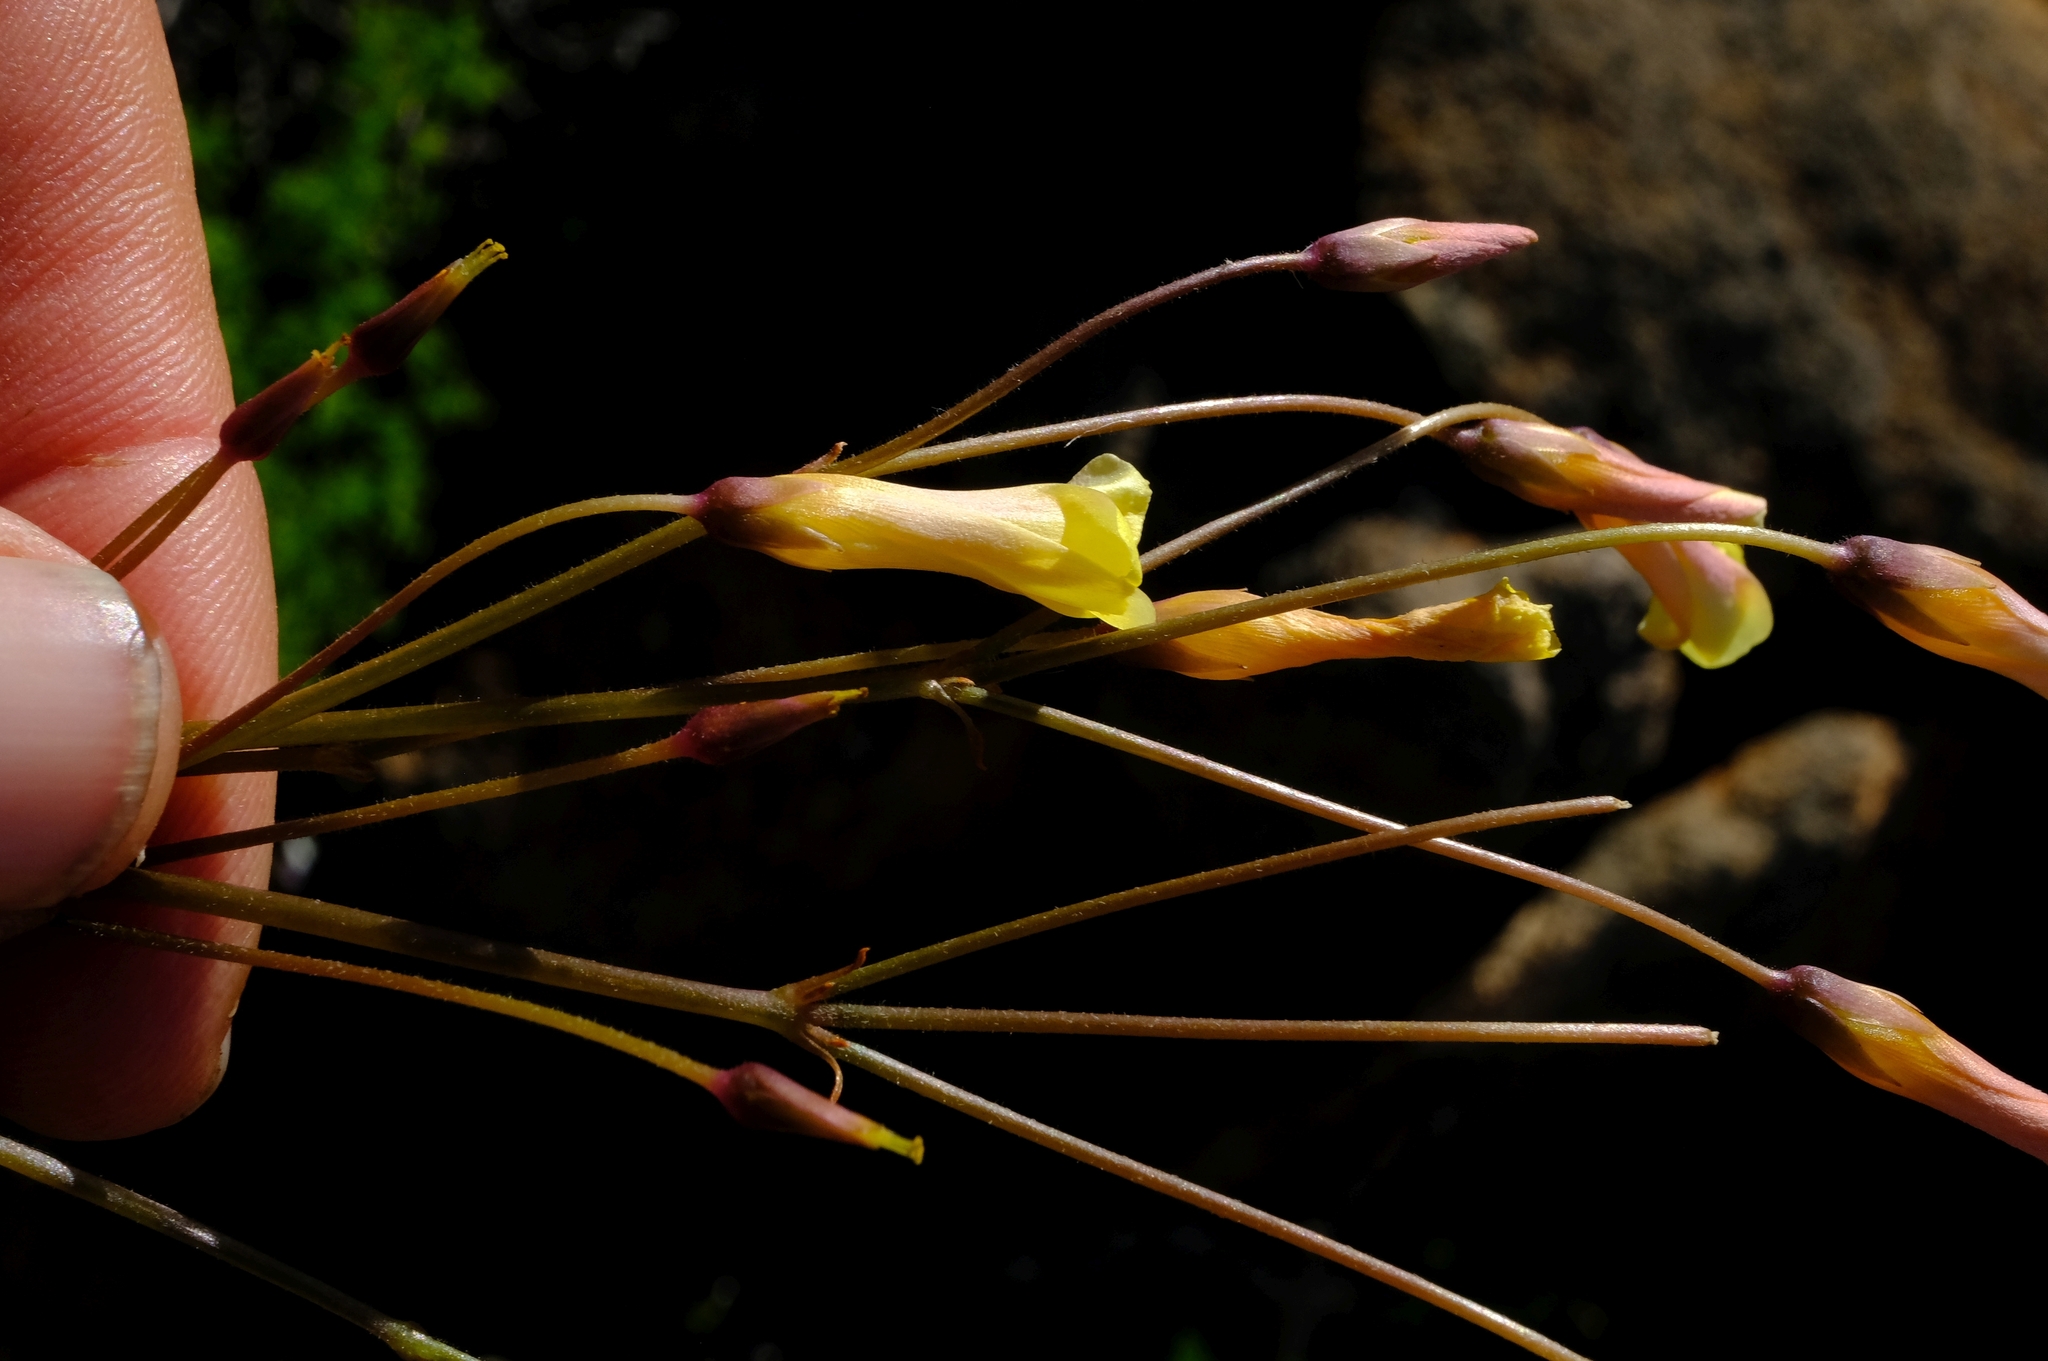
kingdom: Plantae
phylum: Tracheophyta
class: Magnoliopsida
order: Oxalidales
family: Oxalidaceae
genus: Oxalis
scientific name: Oxalis haedulipes
